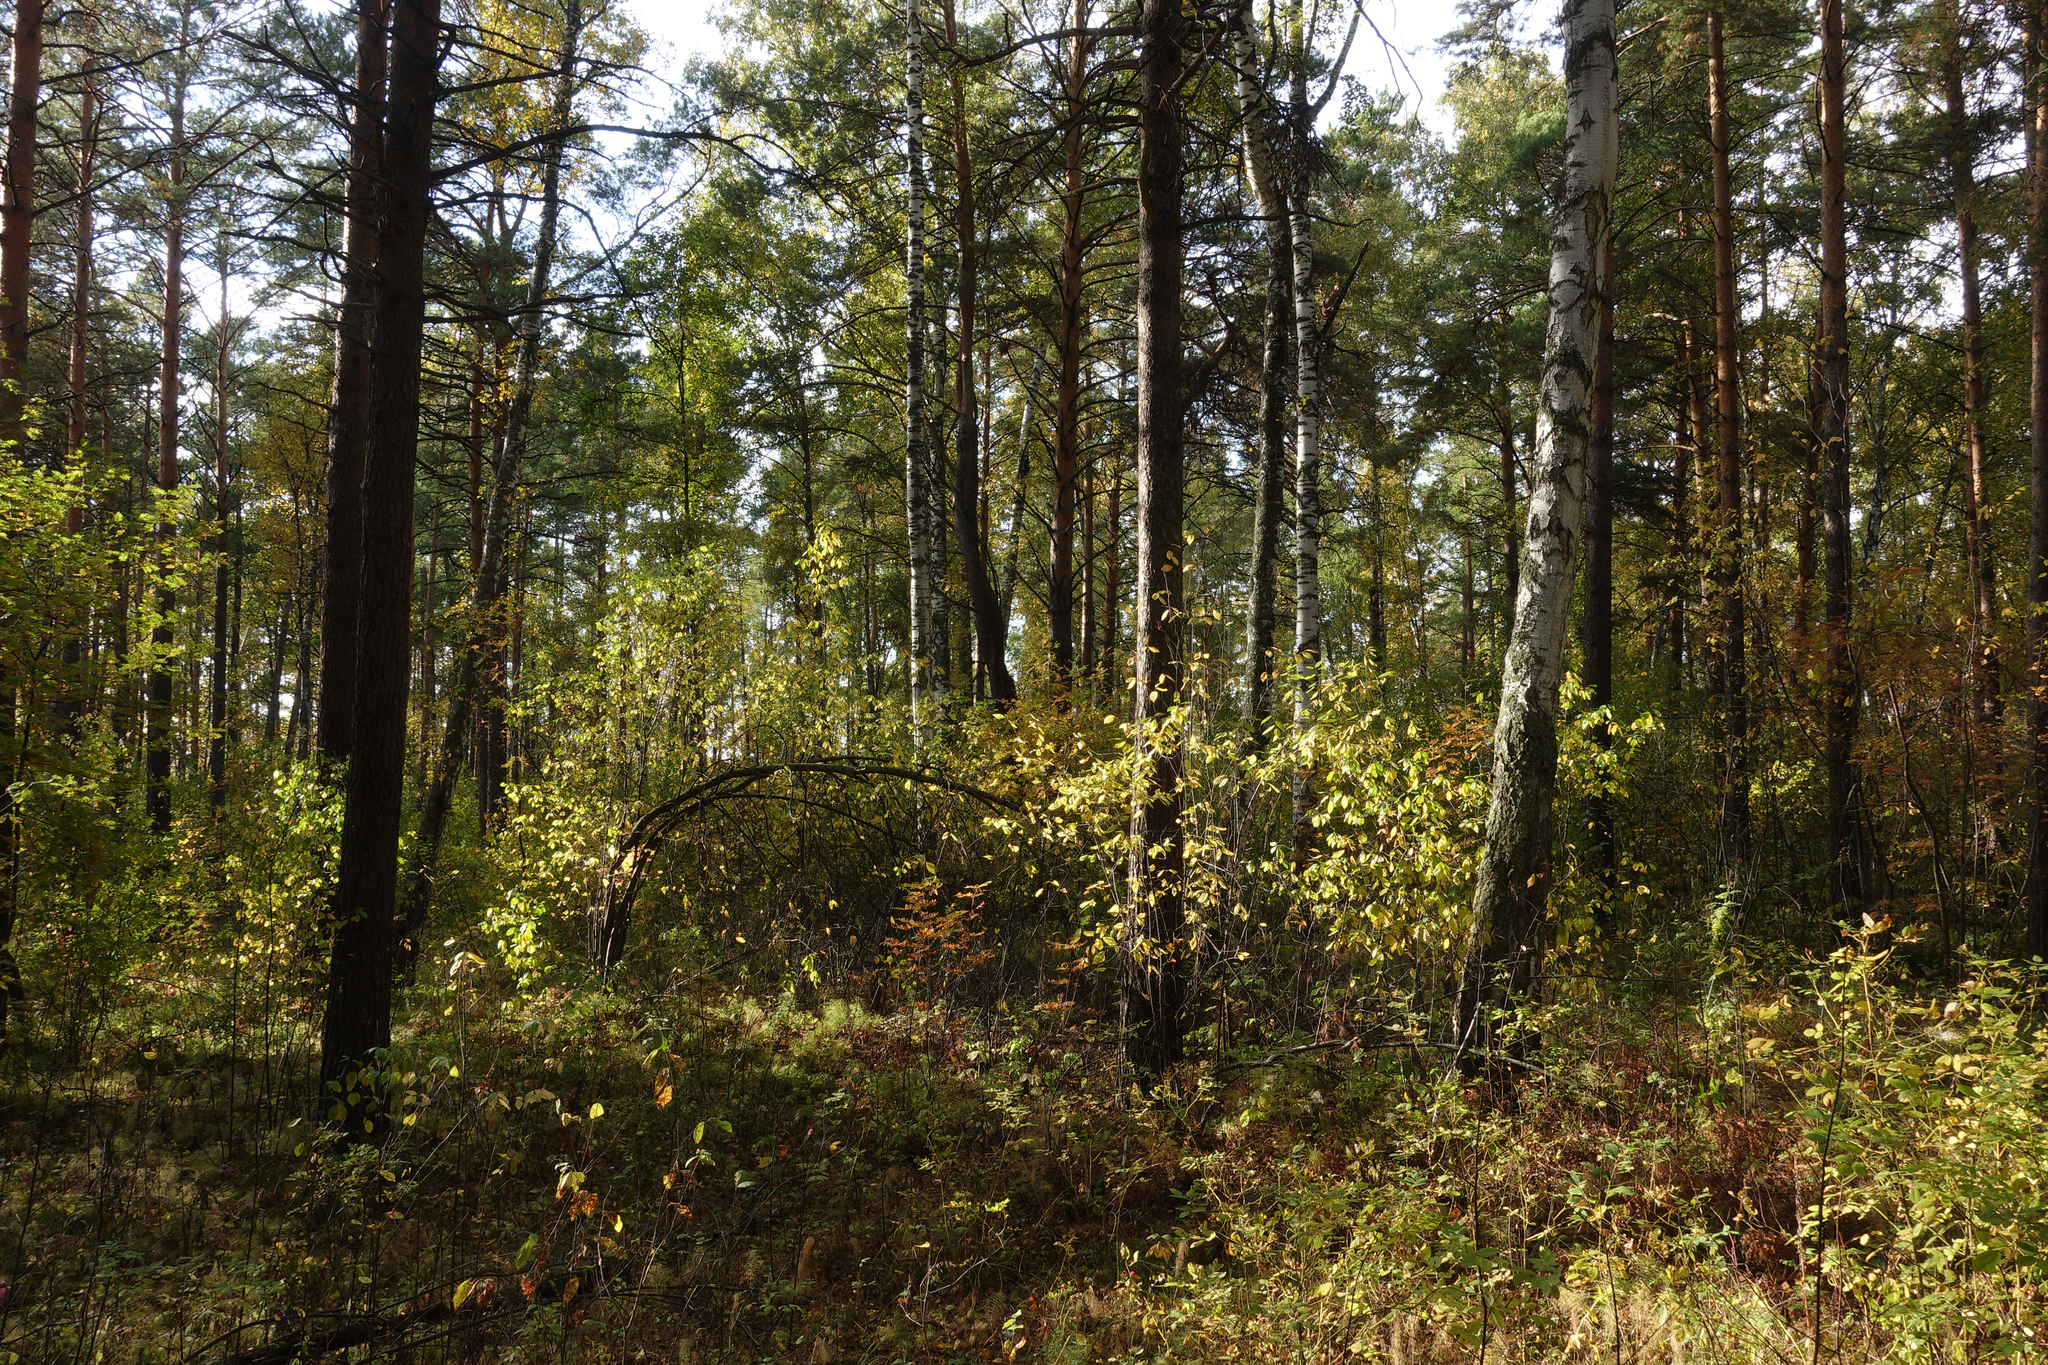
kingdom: Plantae
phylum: Tracheophyta
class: Pinopsida
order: Pinales
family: Pinaceae
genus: Pinus
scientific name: Pinus sylvestris
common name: Scots pine
